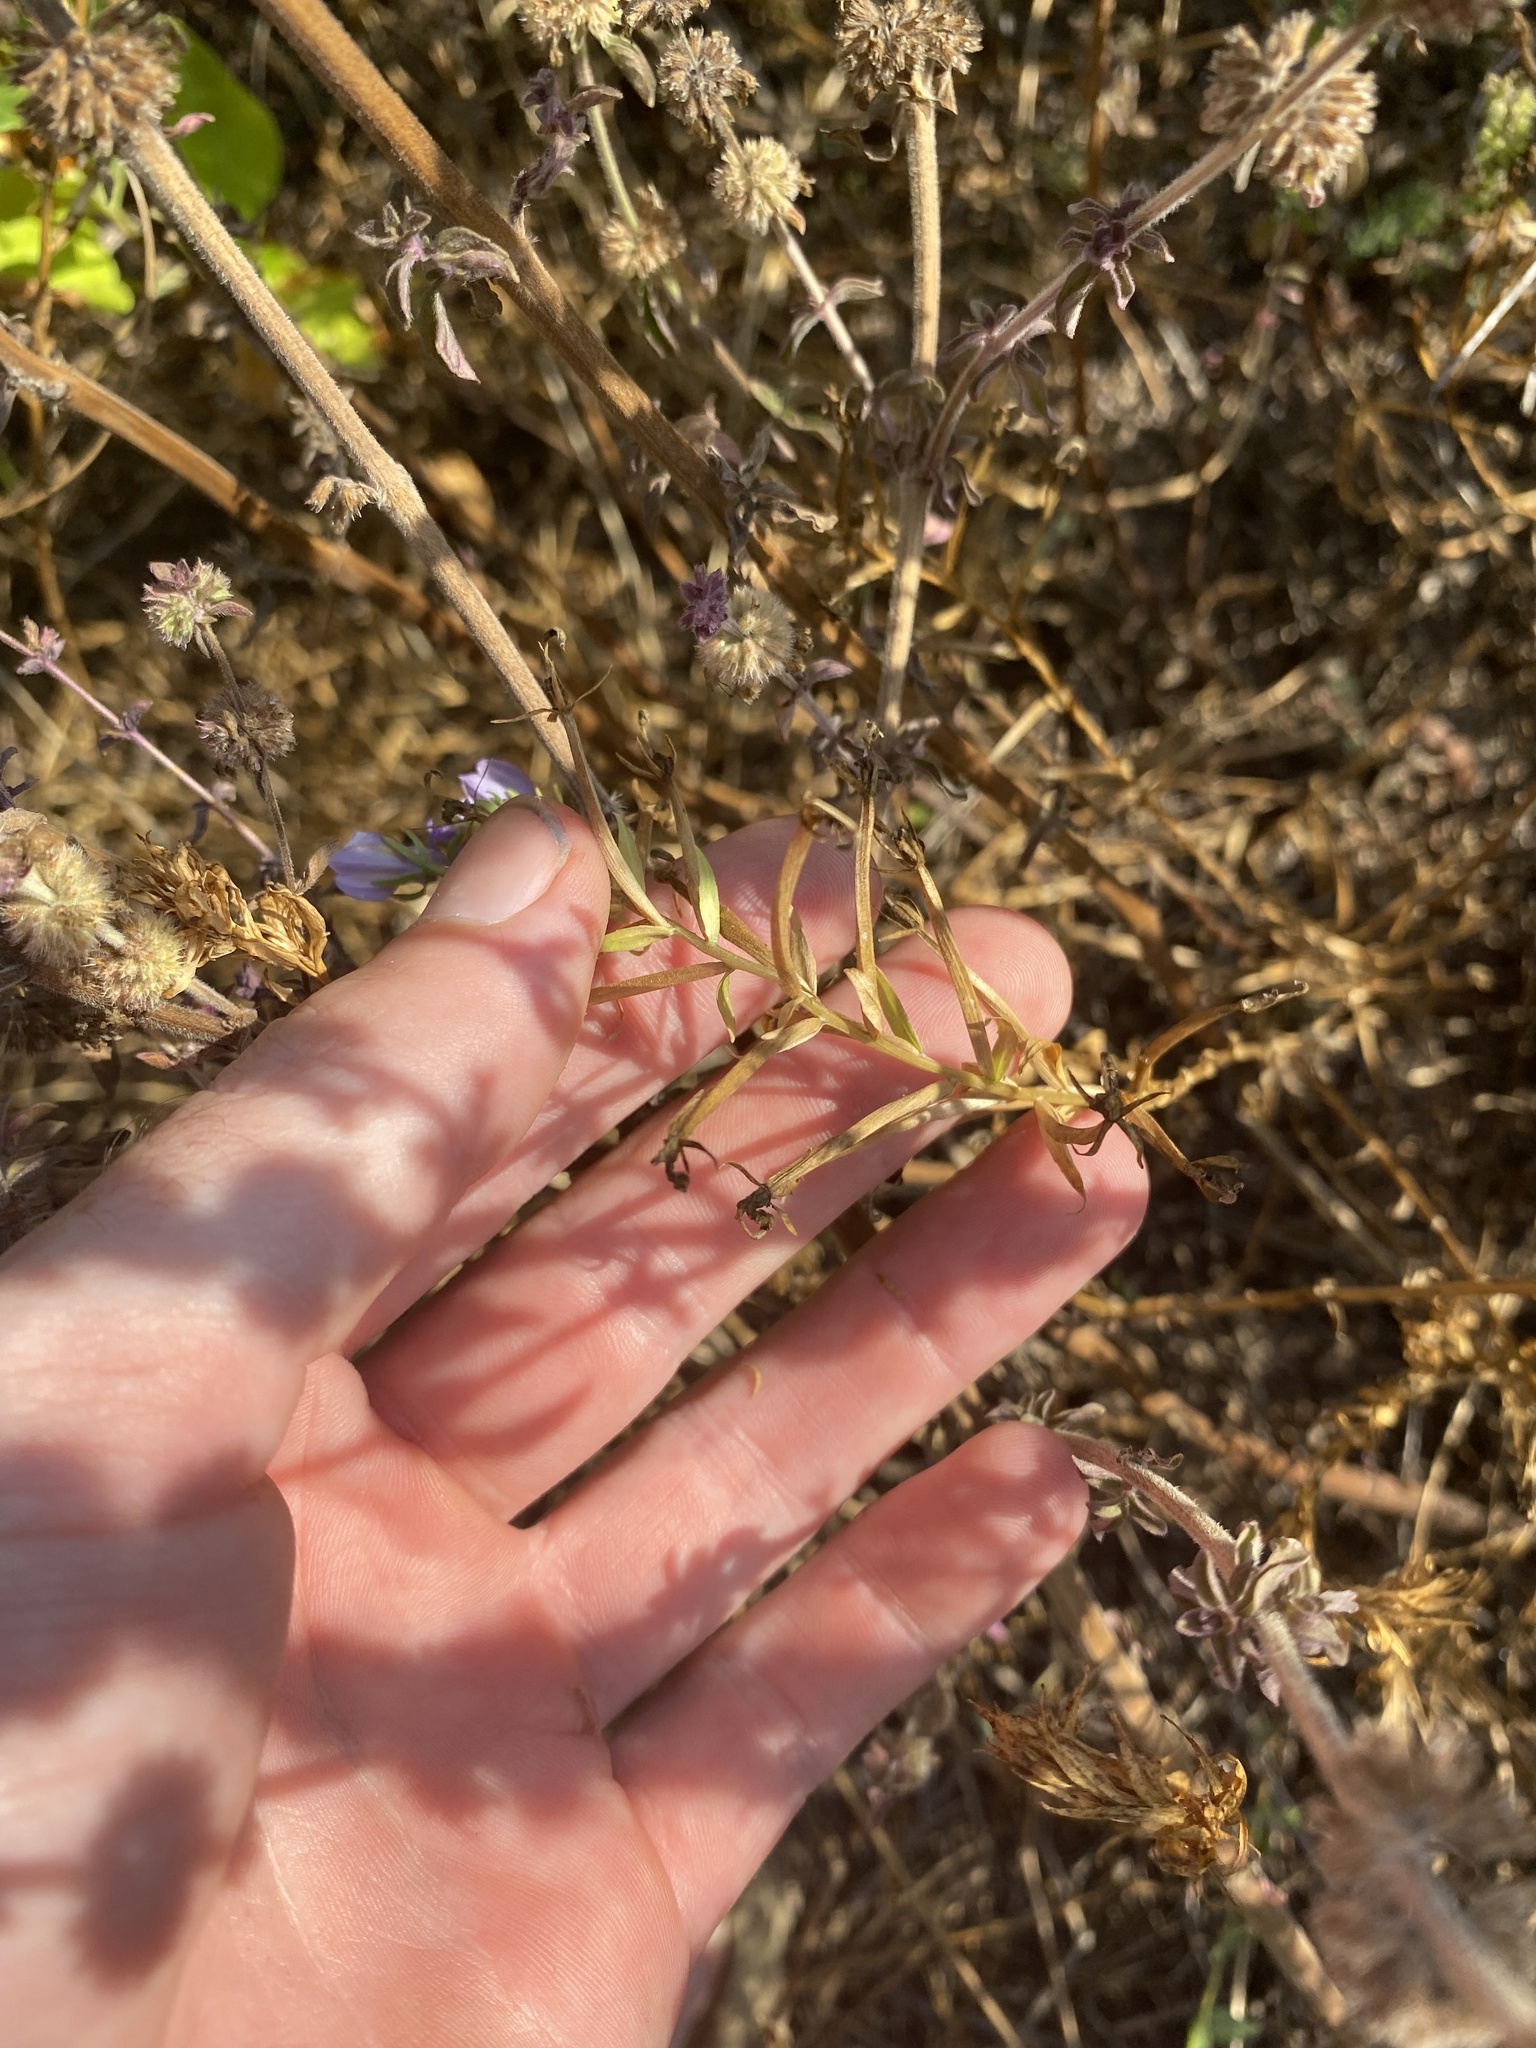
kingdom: Plantae
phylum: Tracheophyta
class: Magnoliopsida
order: Asterales
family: Campanulaceae
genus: Downingia
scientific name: Downingia elegans
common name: Californian lobelia
